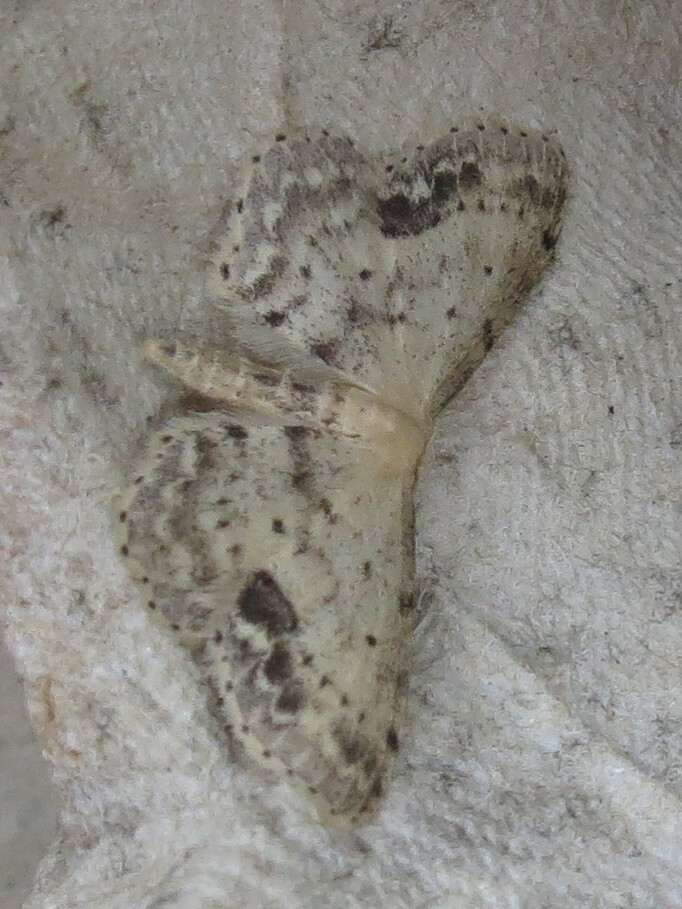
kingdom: Animalia
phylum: Arthropoda
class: Insecta
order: Lepidoptera
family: Geometridae
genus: Idaea
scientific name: Idaea dimidiata
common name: Single-dotted wave
